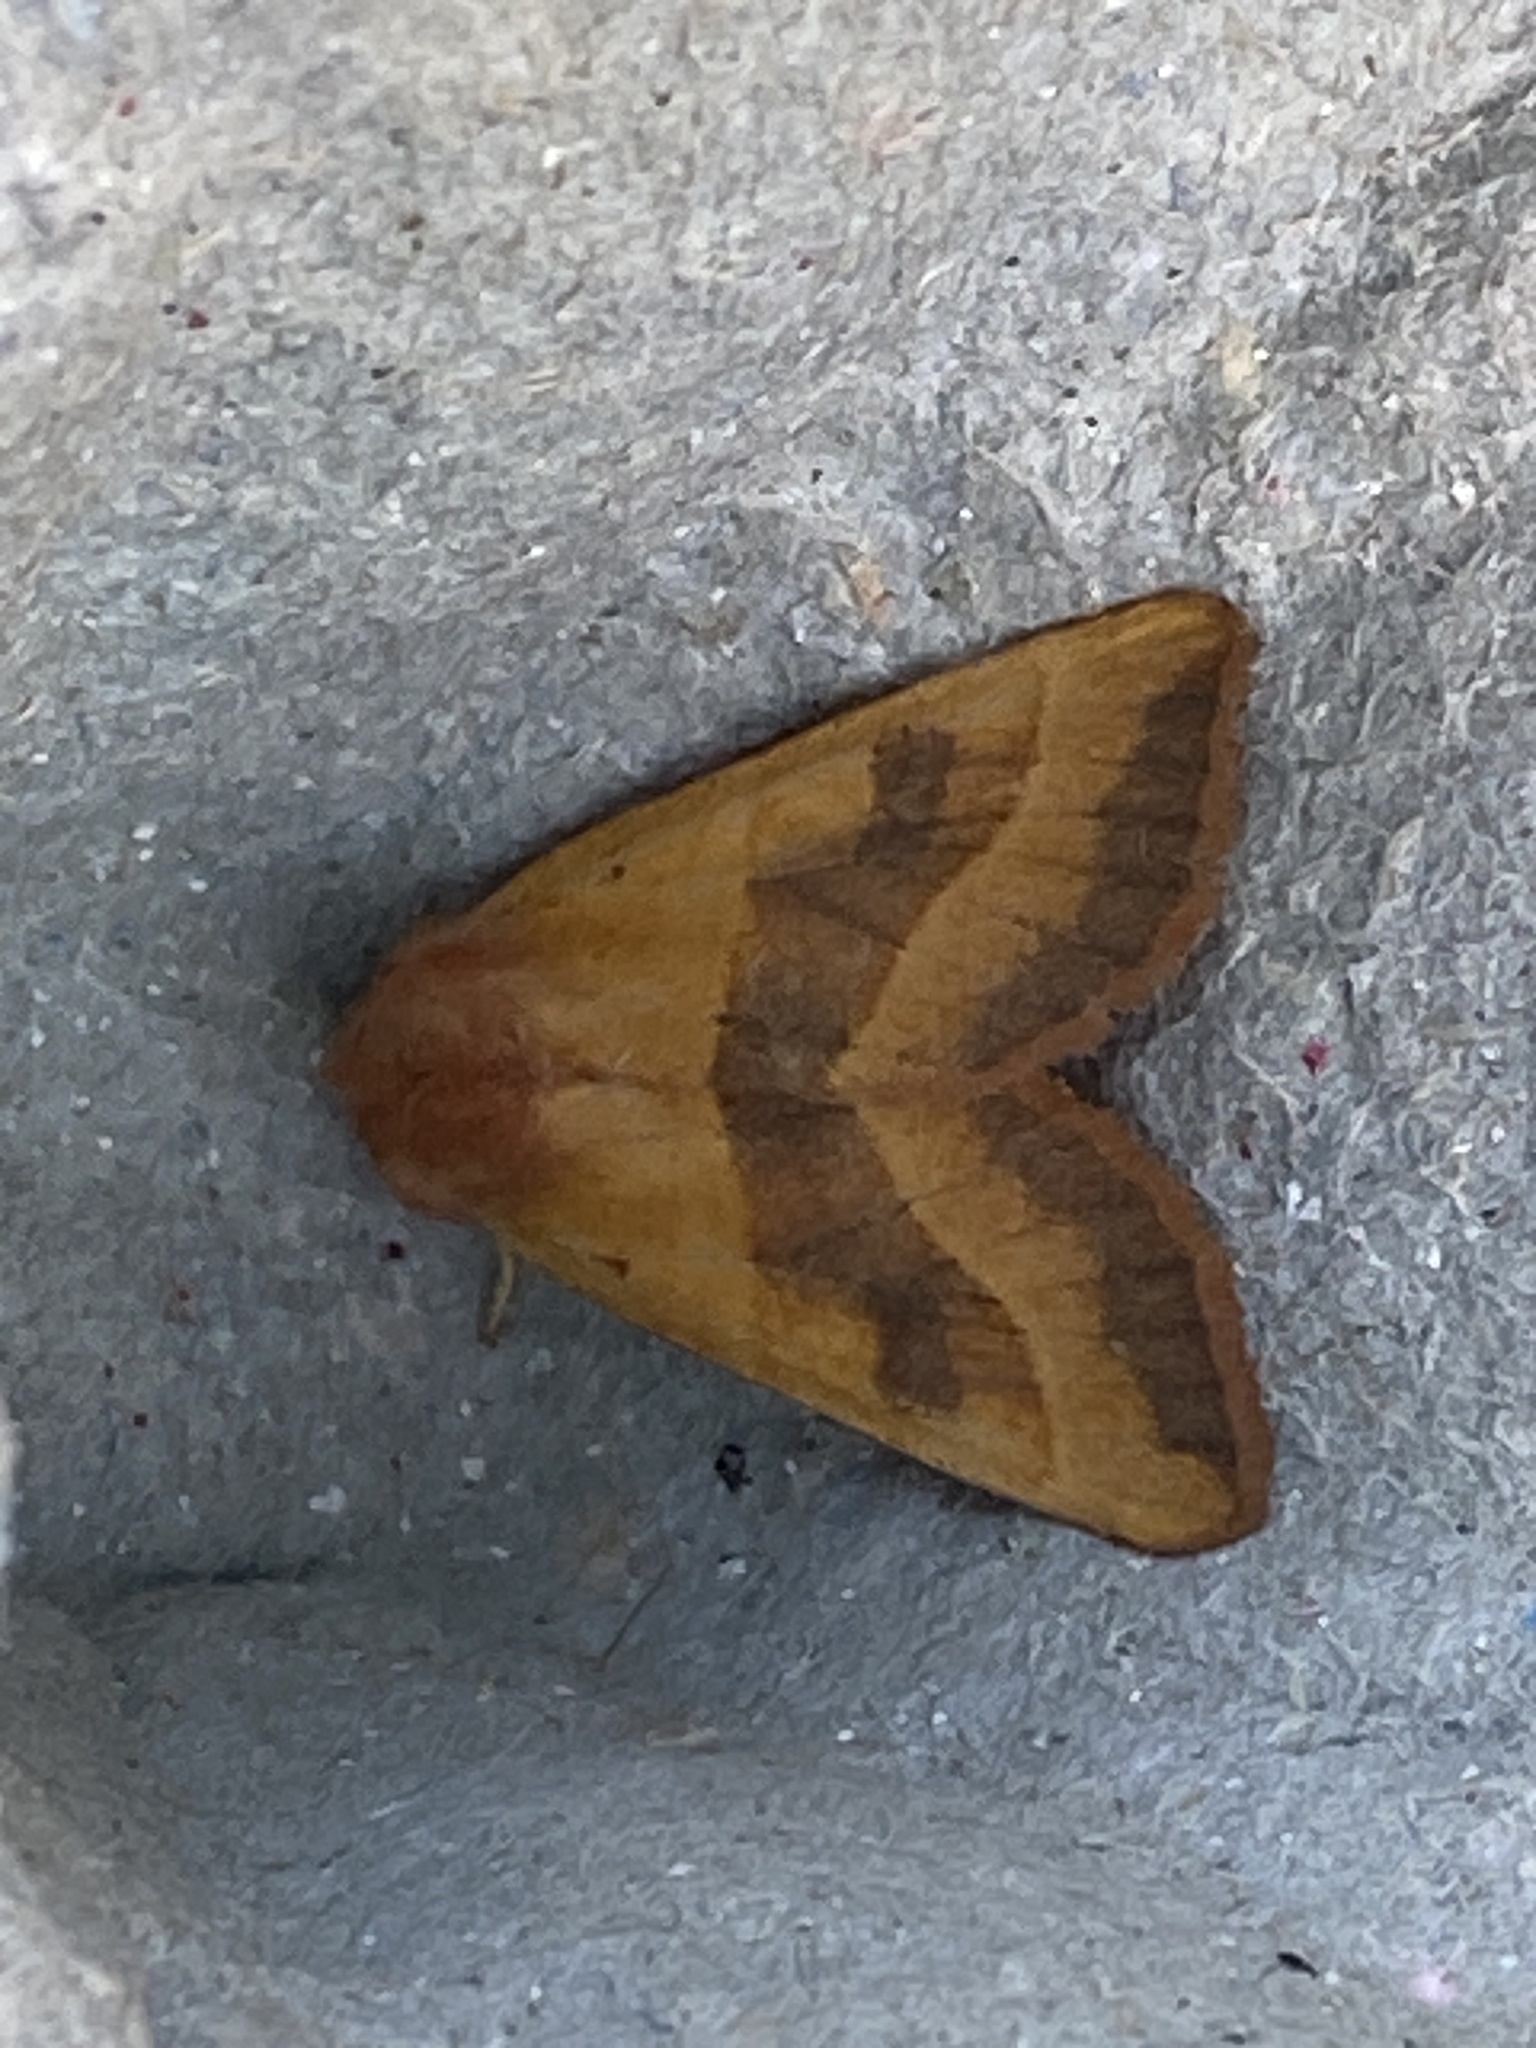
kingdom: Animalia
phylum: Arthropoda
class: Insecta
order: Lepidoptera
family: Noctuidae
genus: Atethmia
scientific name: Atethmia centrago
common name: Centre-barred sallow
